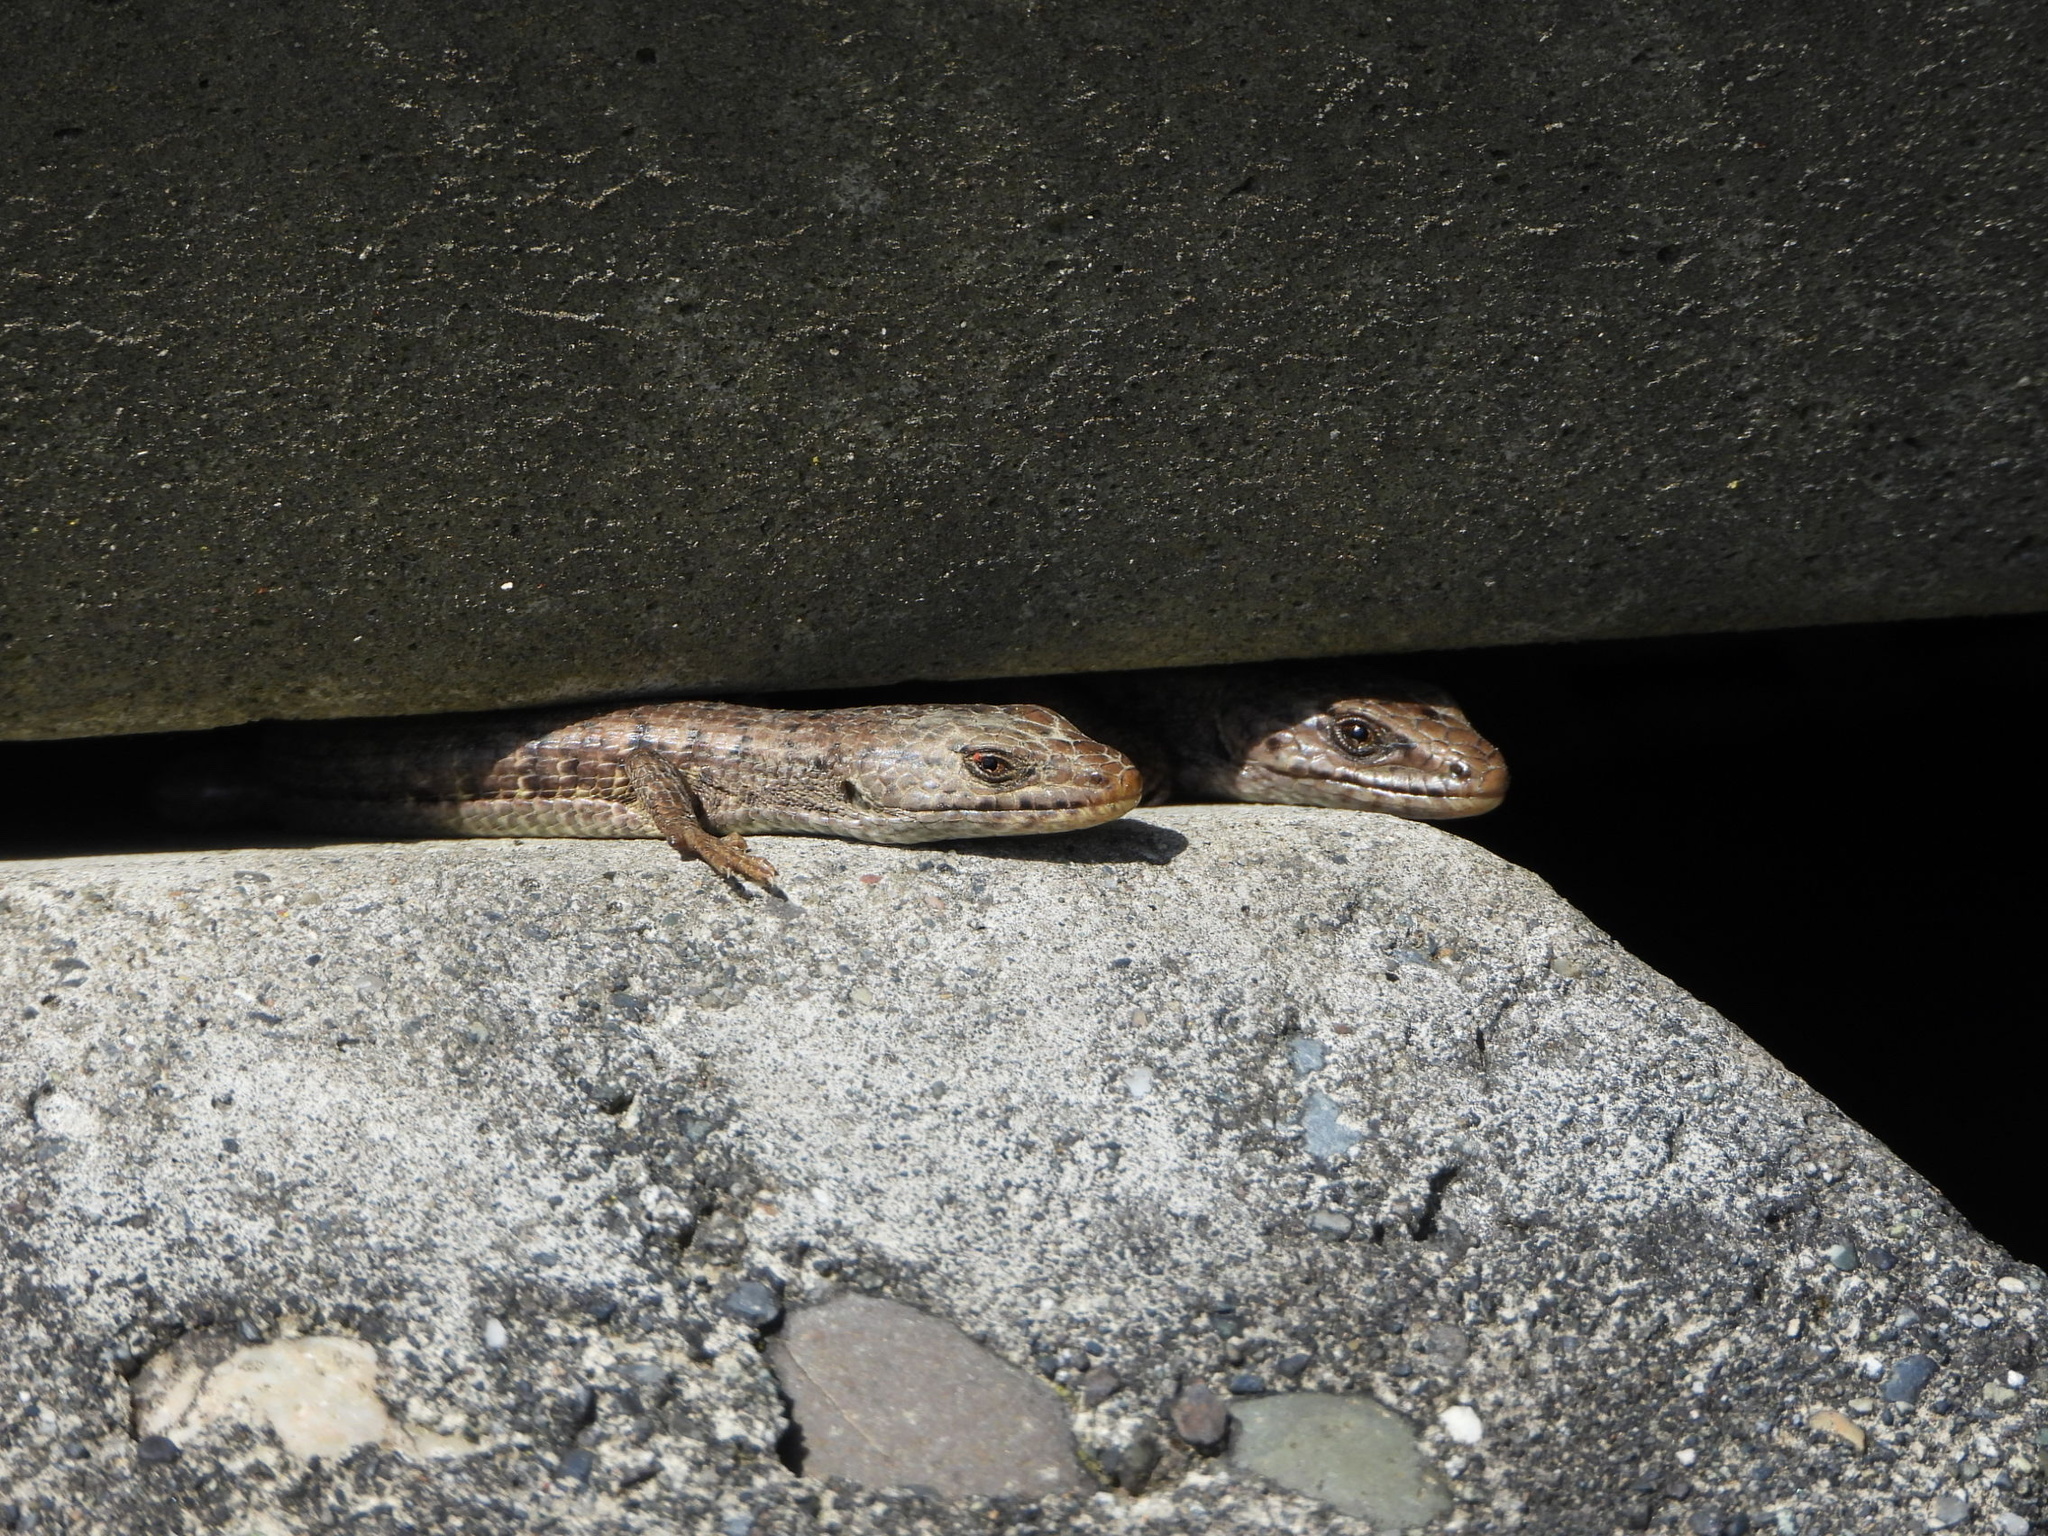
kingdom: Animalia
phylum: Chordata
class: Squamata
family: Anguidae
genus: Elgaria
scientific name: Elgaria coerulea
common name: Northern alligator lizard
